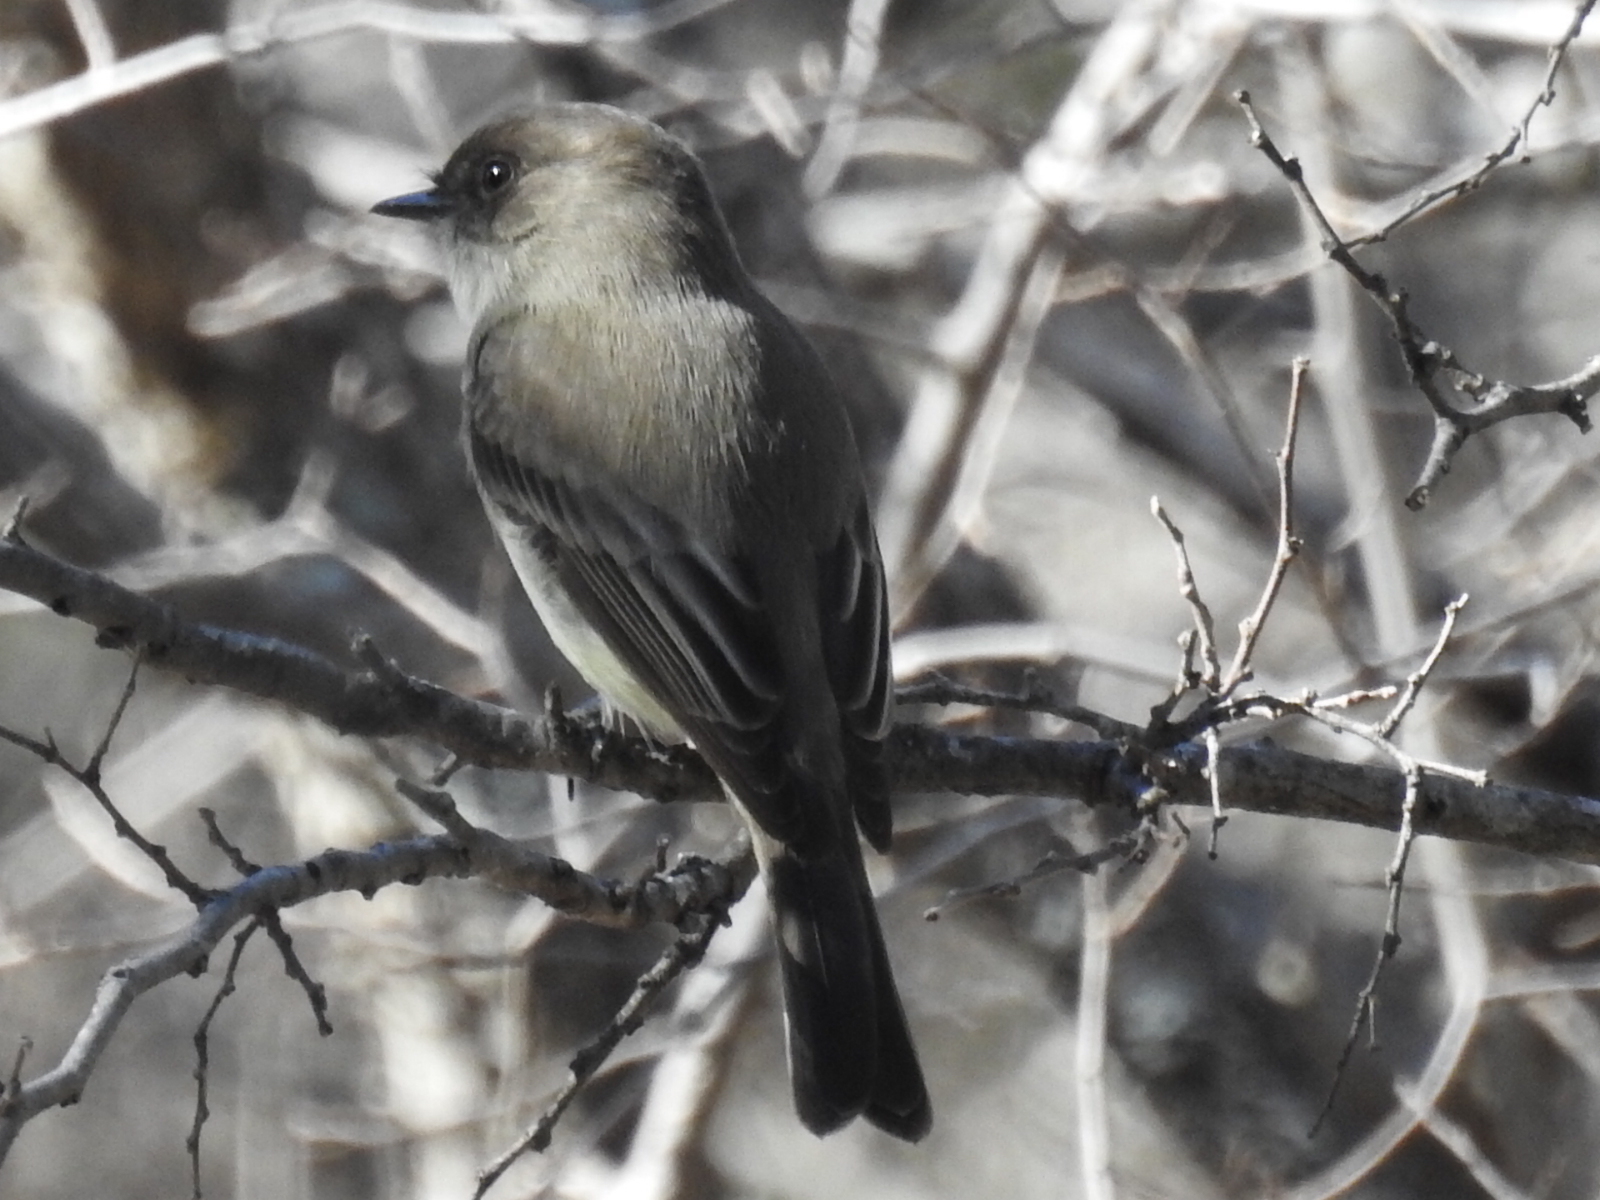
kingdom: Animalia
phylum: Chordata
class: Aves
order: Passeriformes
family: Tyrannidae
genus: Sayornis
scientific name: Sayornis phoebe
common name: Eastern phoebe
